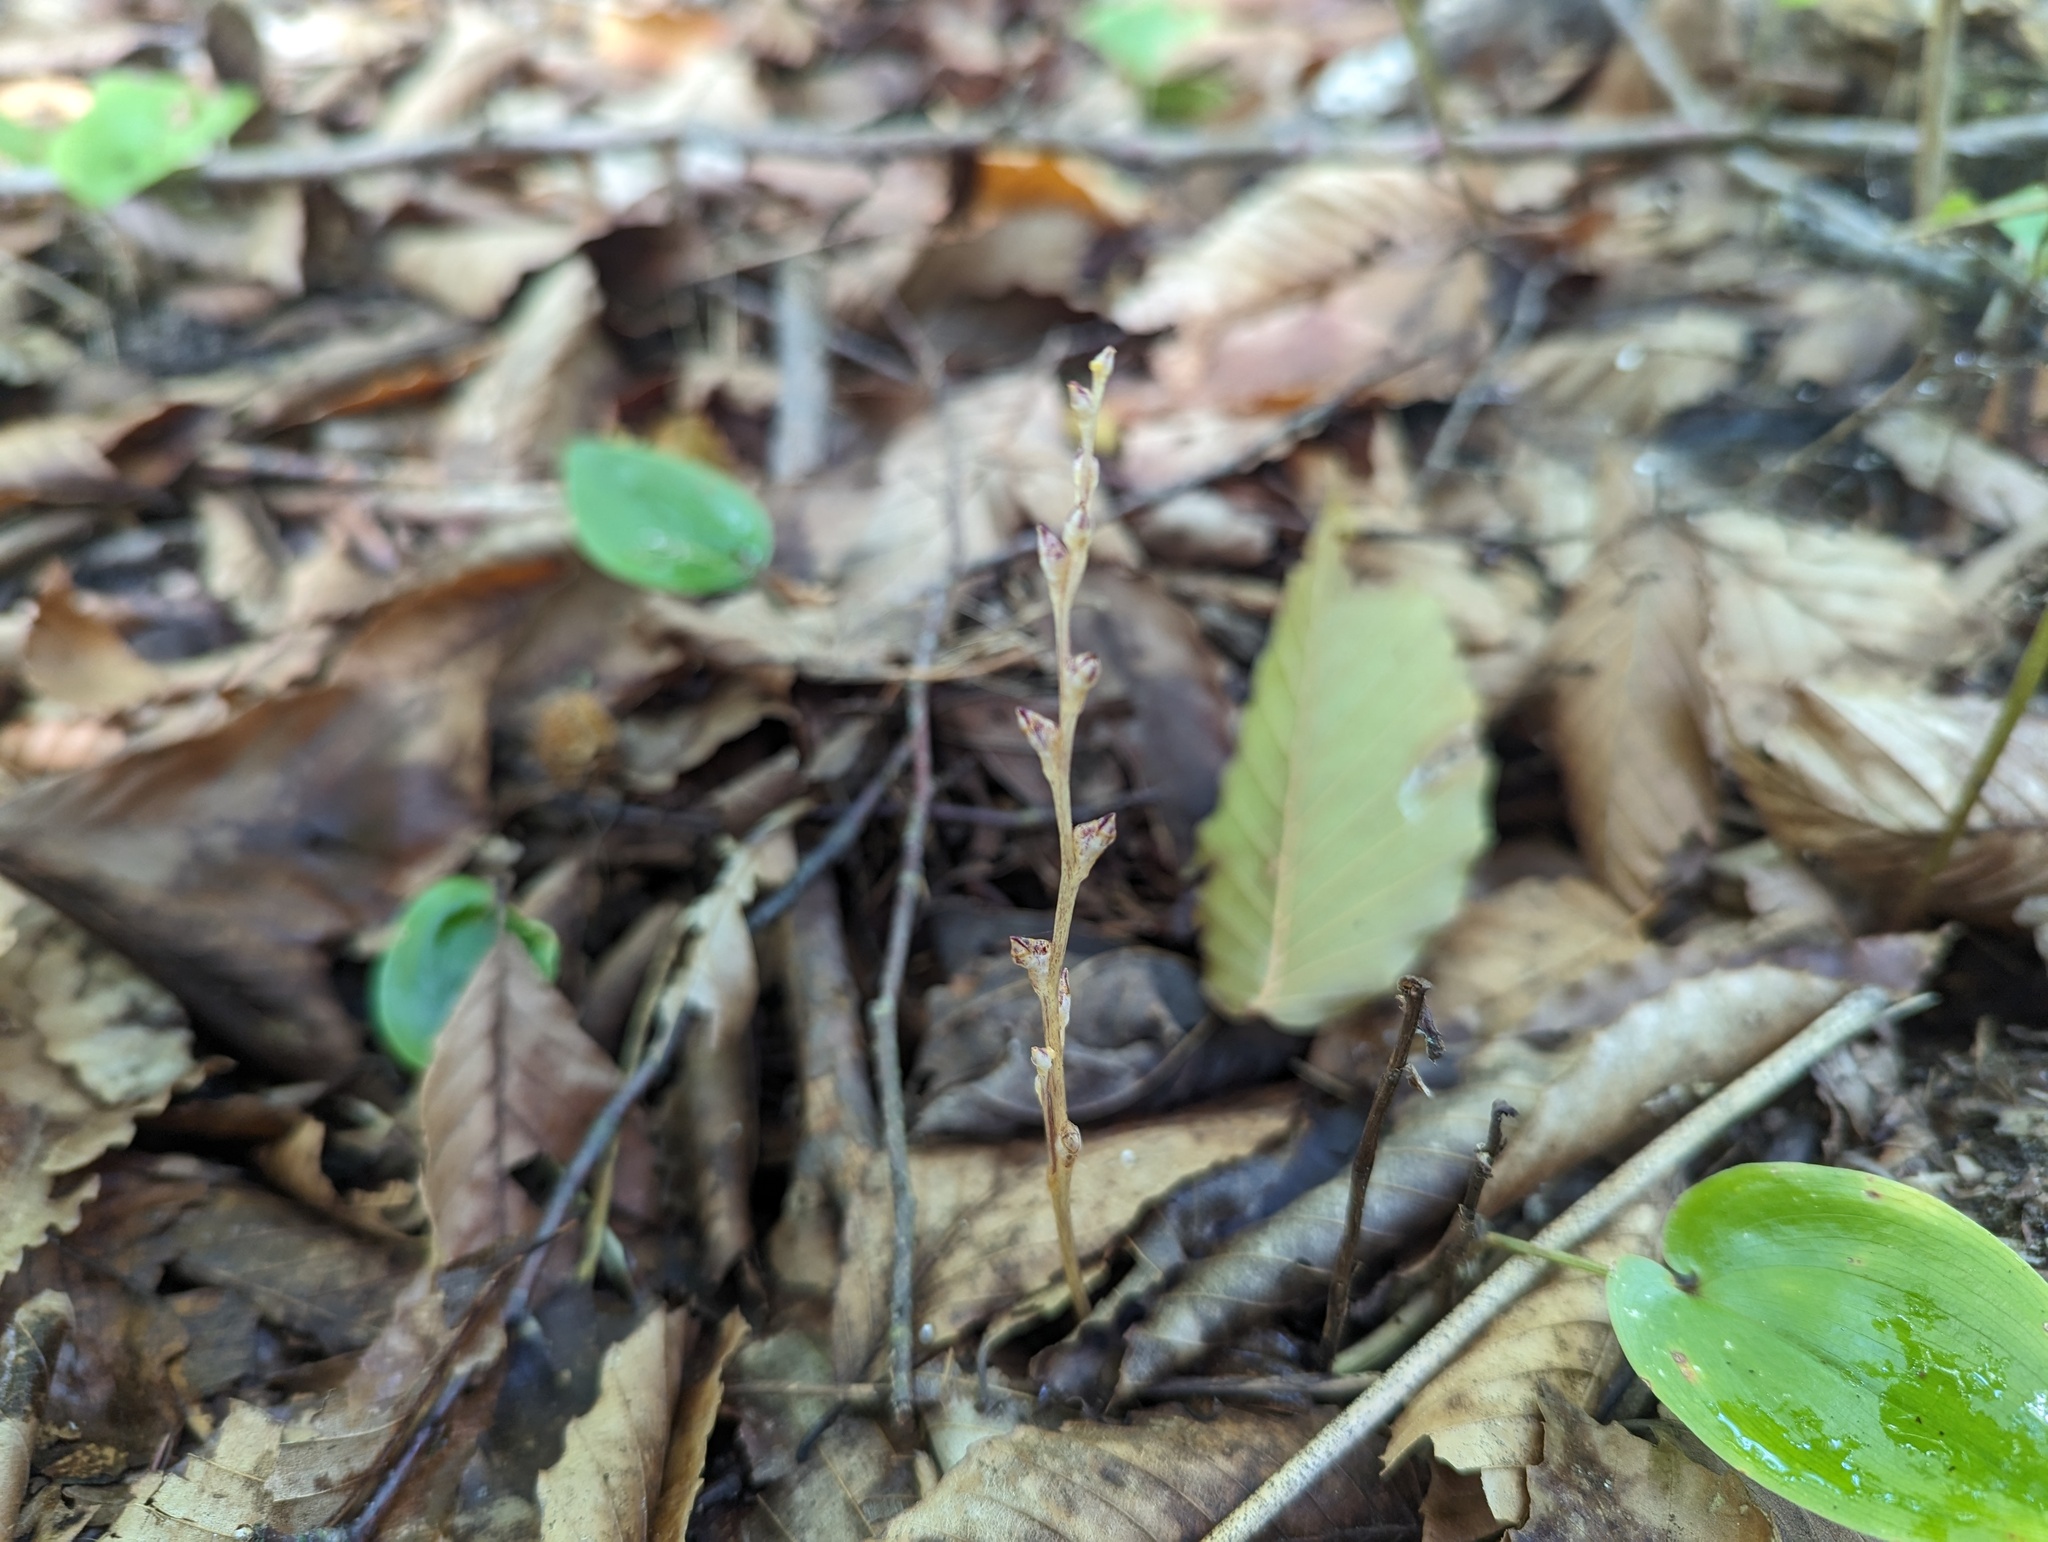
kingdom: Plantae
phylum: Tracheophyta
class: Magnoliopsida
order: Lamiales
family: Orobanchaceae
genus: Epifagus
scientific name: Epifagus virginiana
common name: Beechdrops
